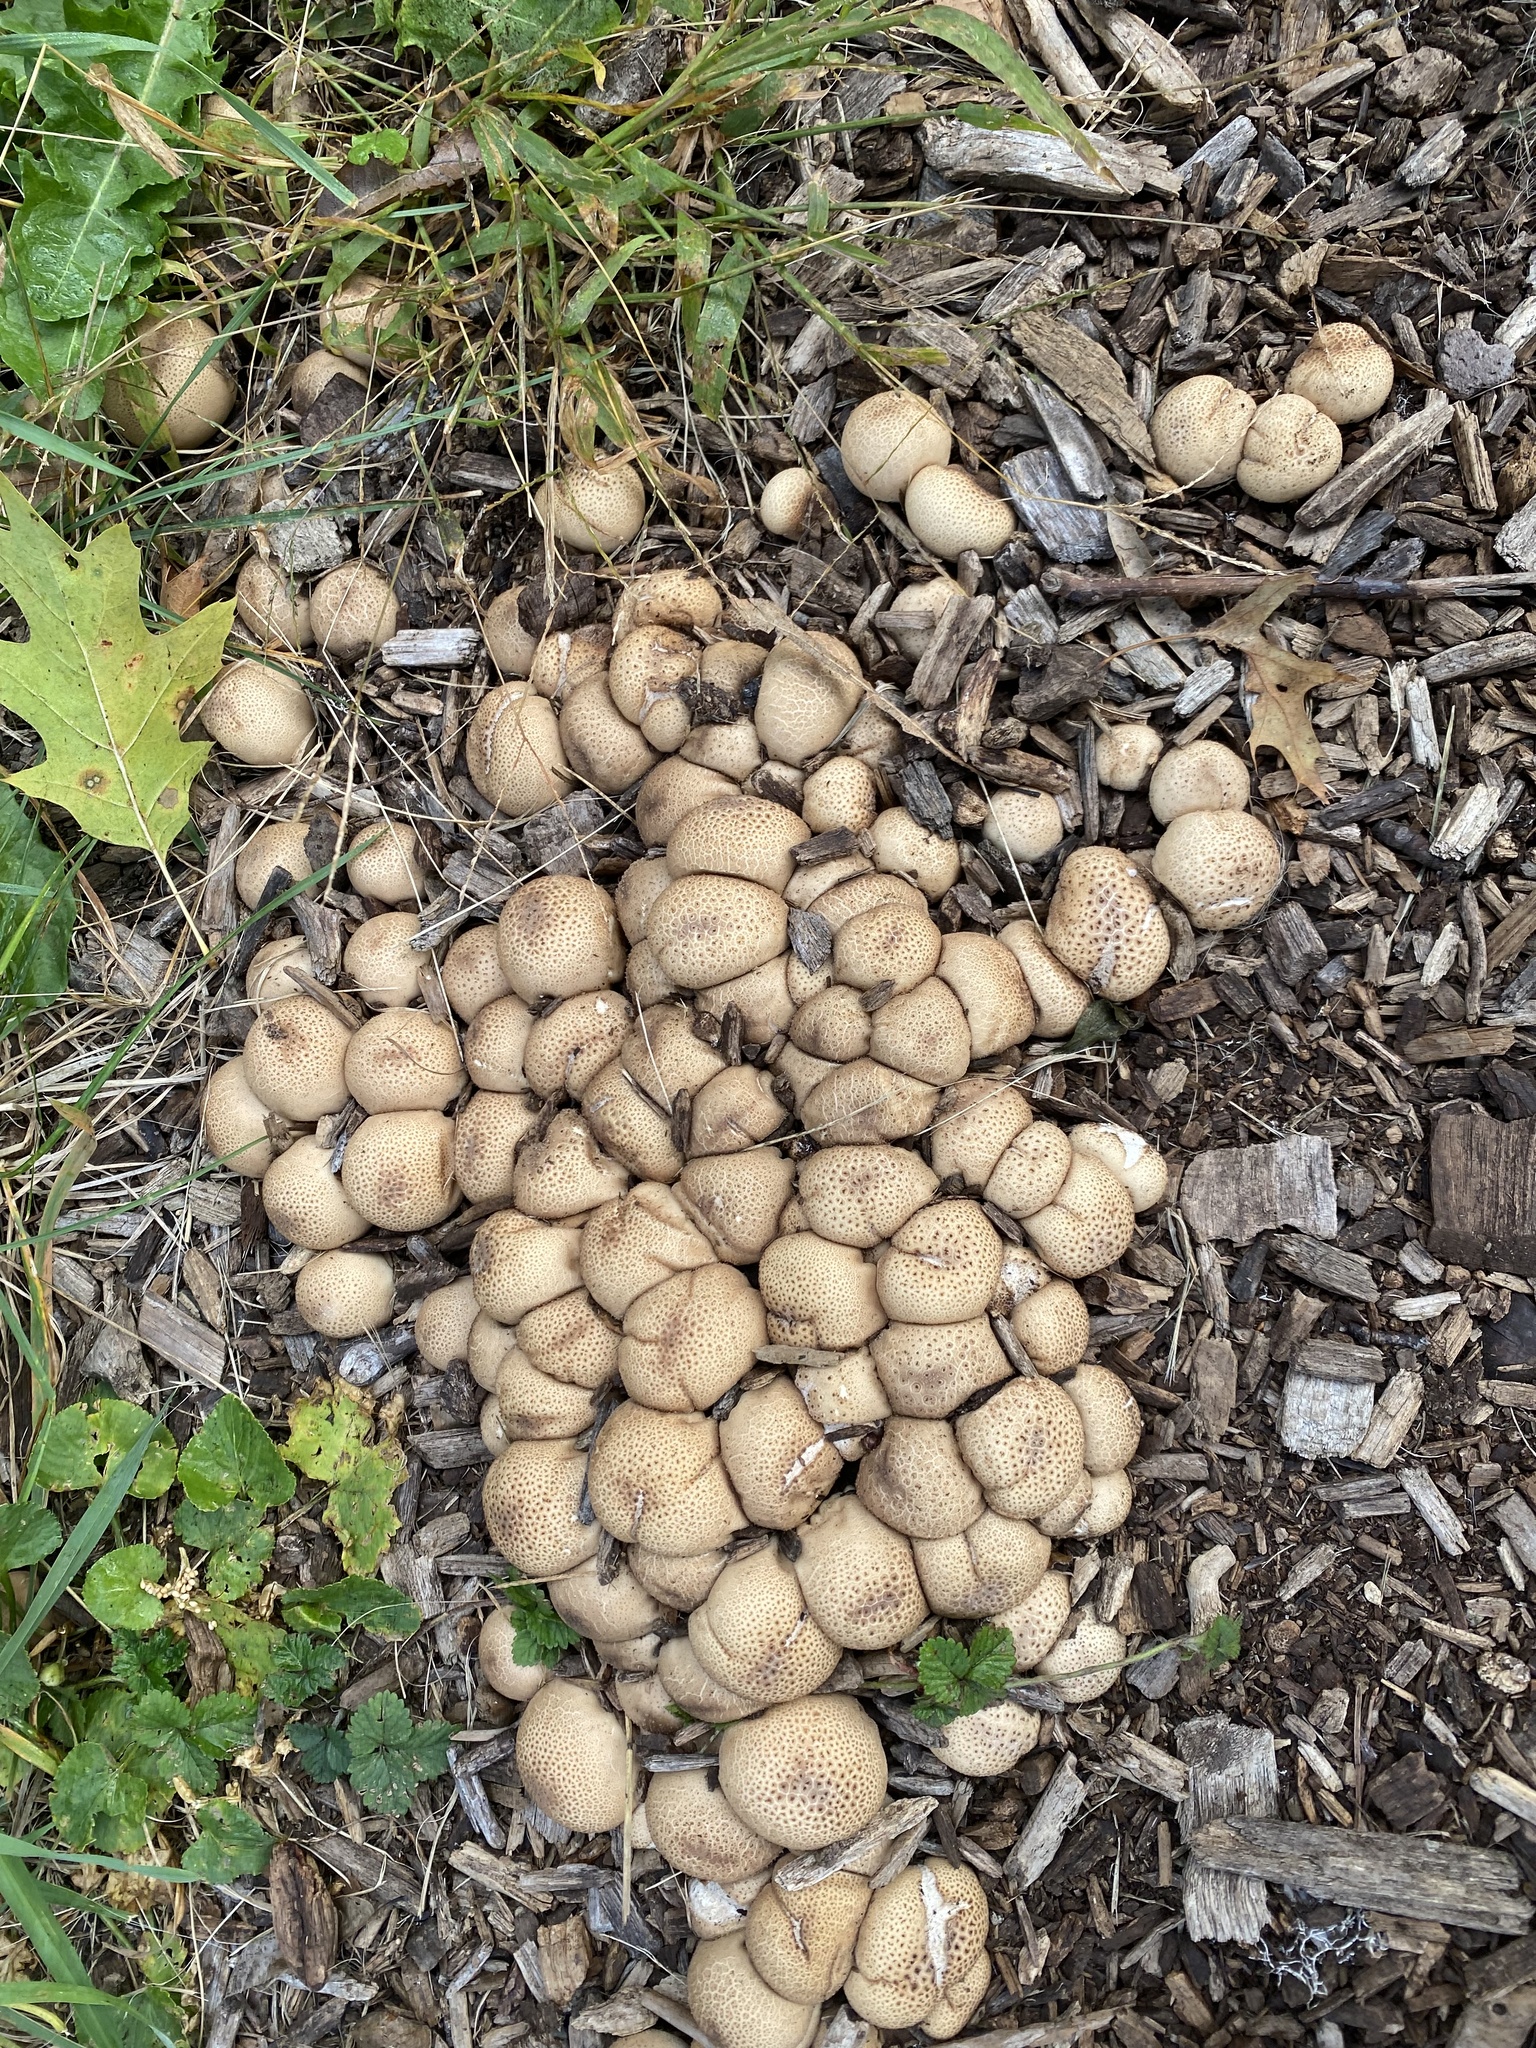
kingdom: Fungi
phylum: Basidiomycota
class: Agaricomycetes
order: Agaricales
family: Lycoperdaceae
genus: Apioperdon
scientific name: Apioperdon pyriforme
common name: Pear-shaped puffball
